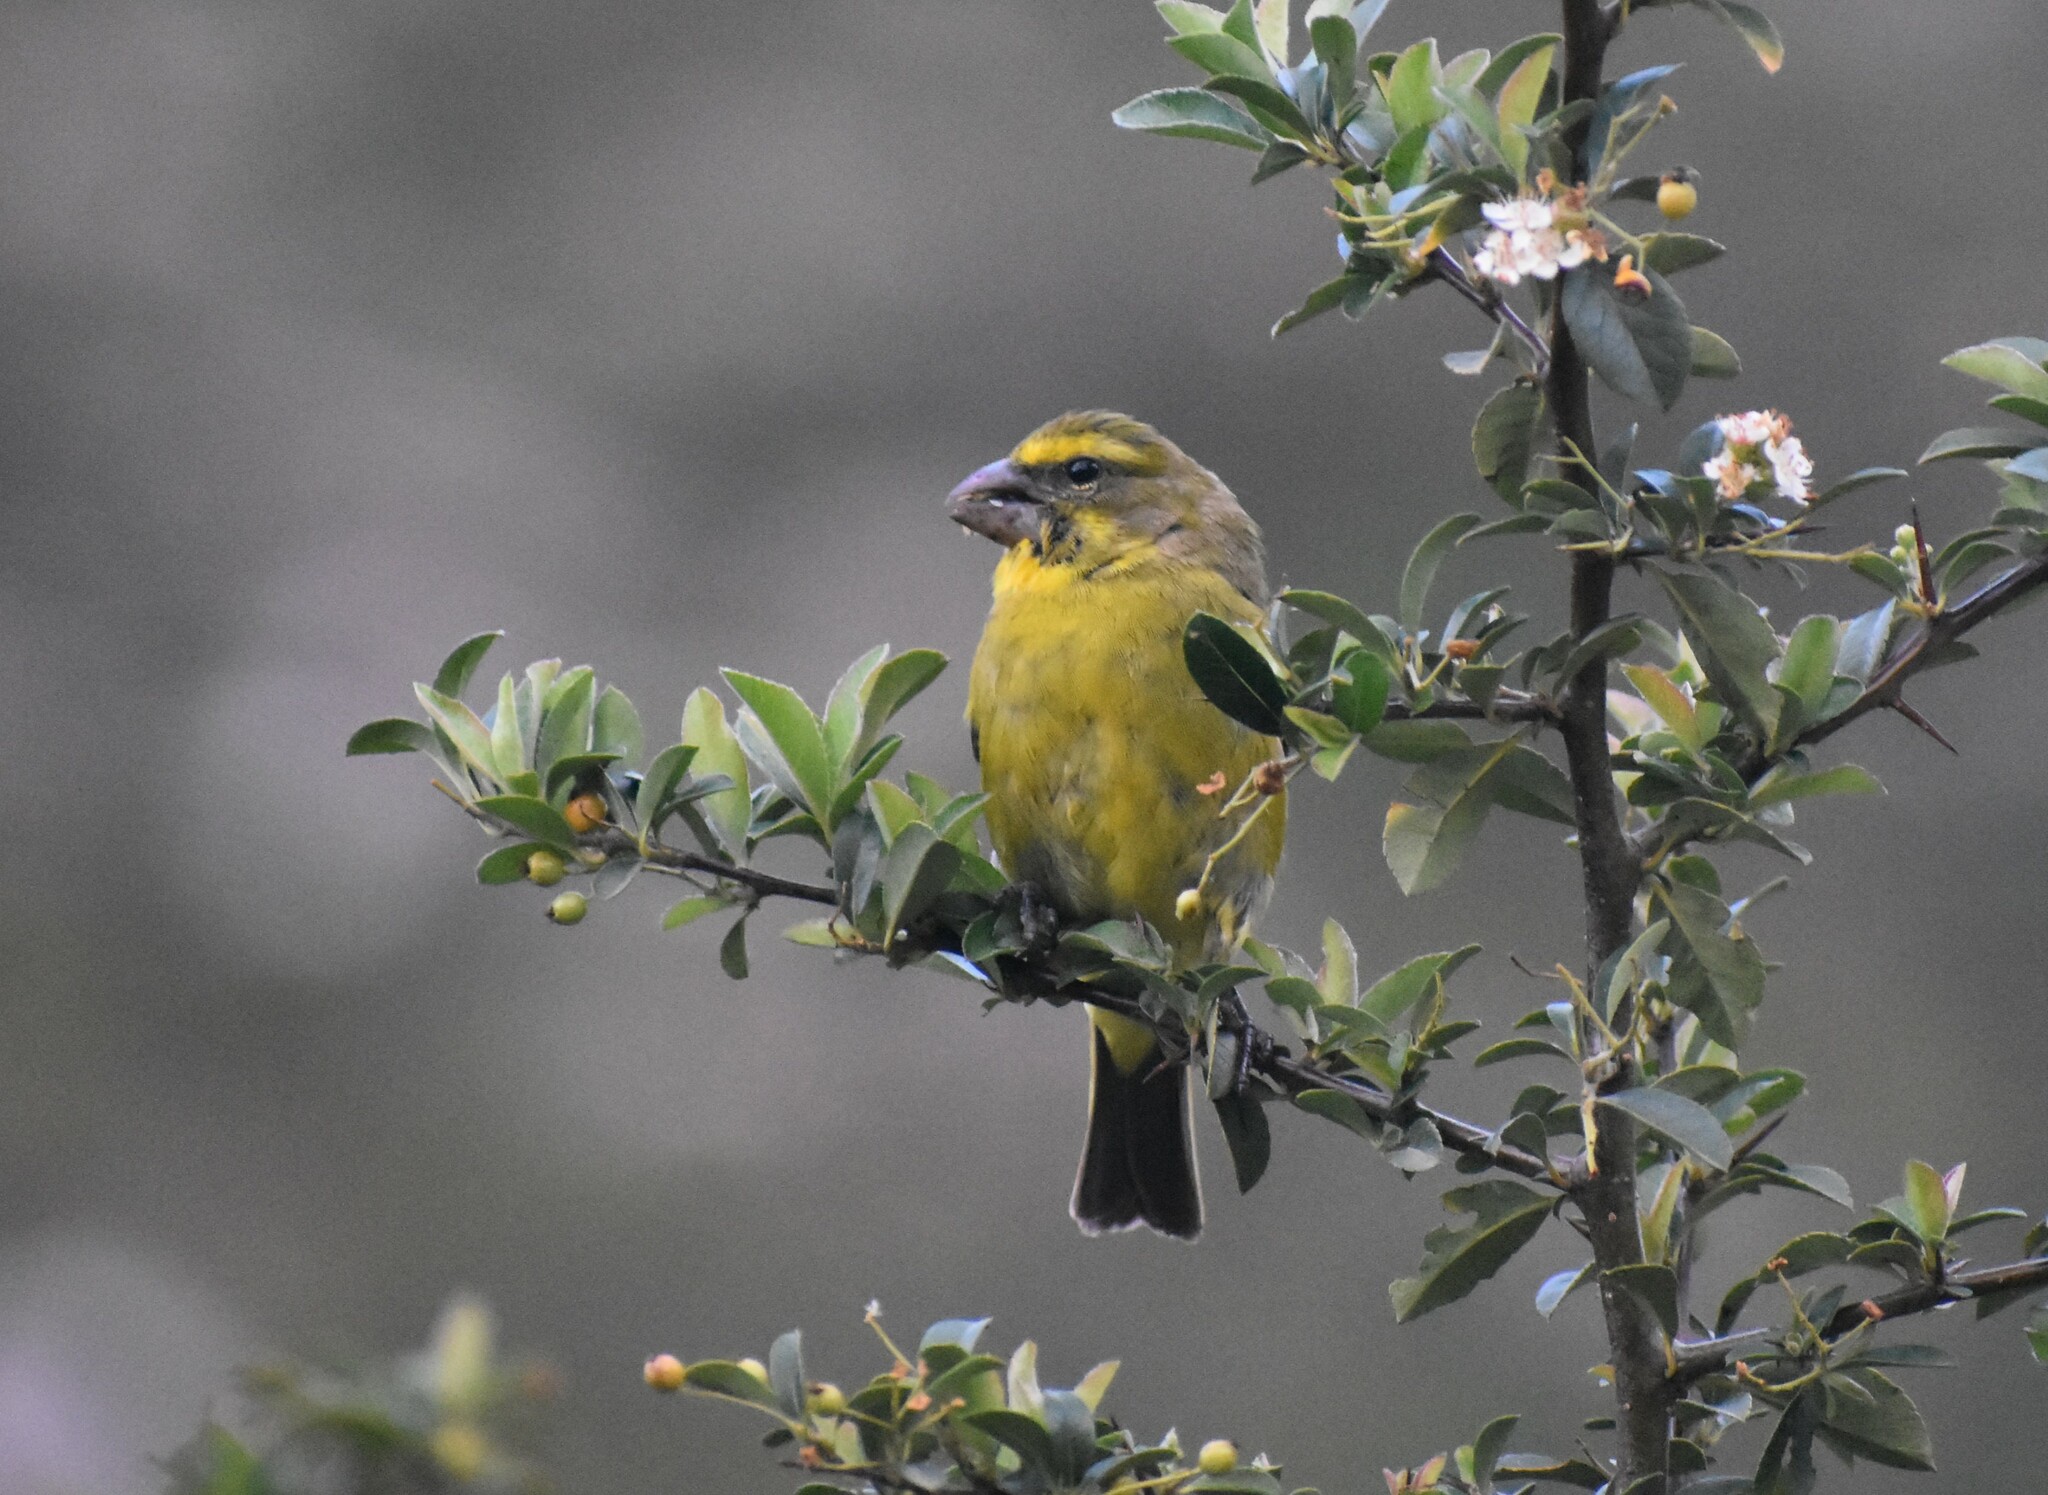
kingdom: Animalia
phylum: Chordata
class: Aves
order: Passeriformes
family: Fringillidae
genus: Crithagra
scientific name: Crithagra sulphurata
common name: Brimstone canary
